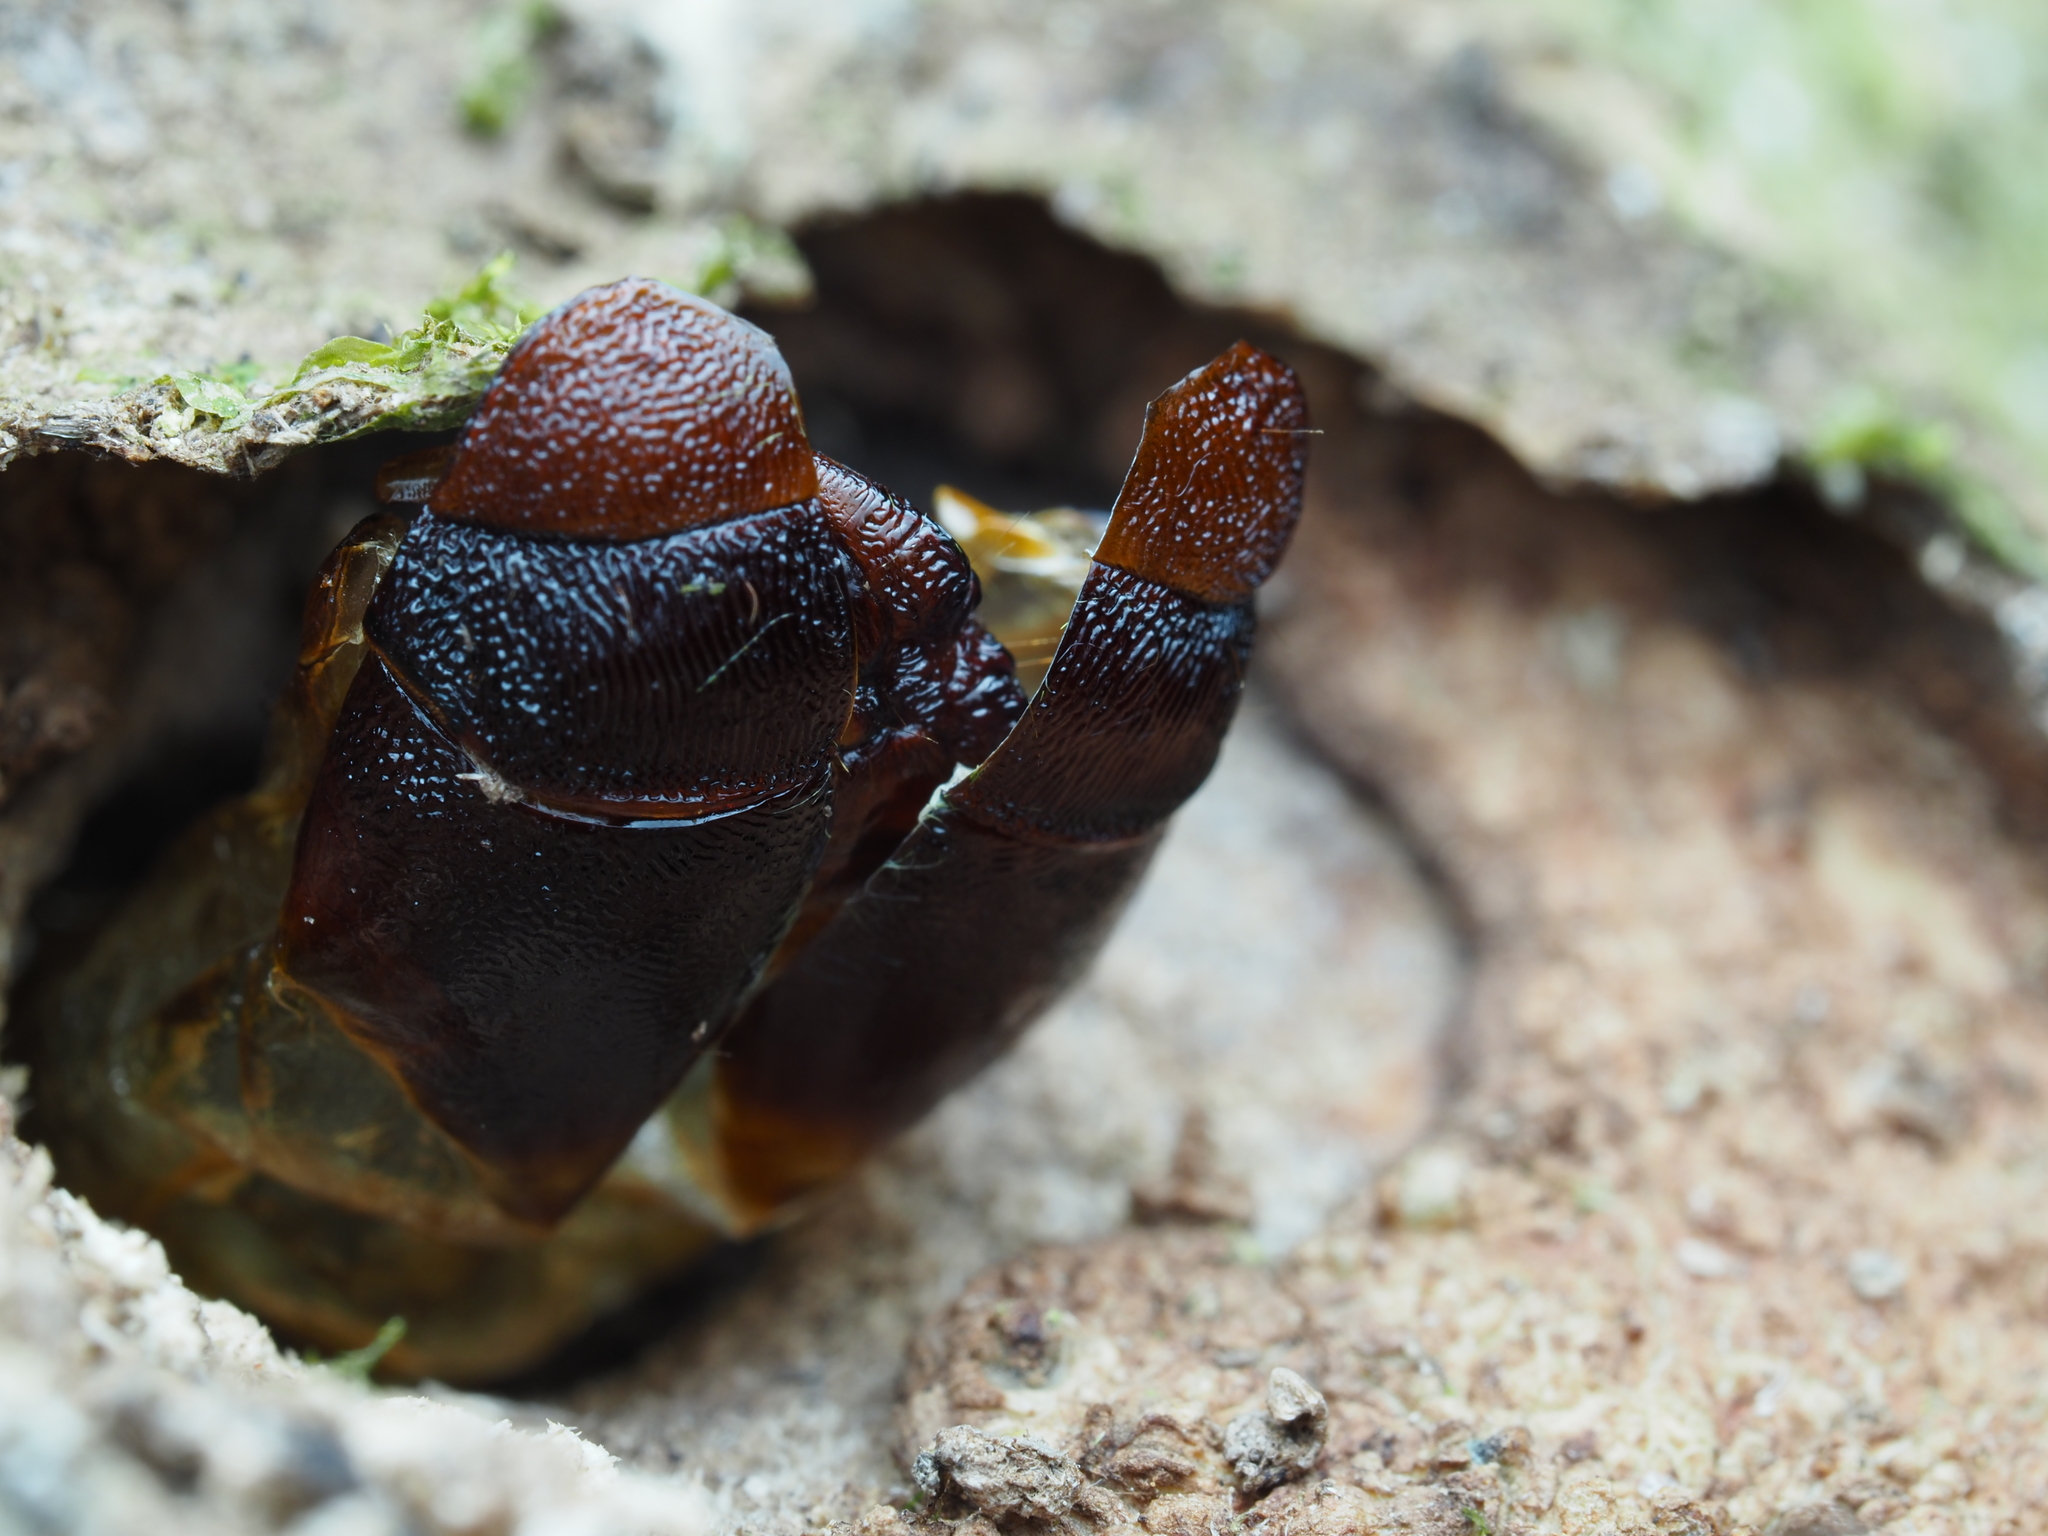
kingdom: Animalia
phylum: Arthropoda
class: Insecta
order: Lepidoptera
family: Hepialidae
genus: Aenetus
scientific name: Aenetus virescens
